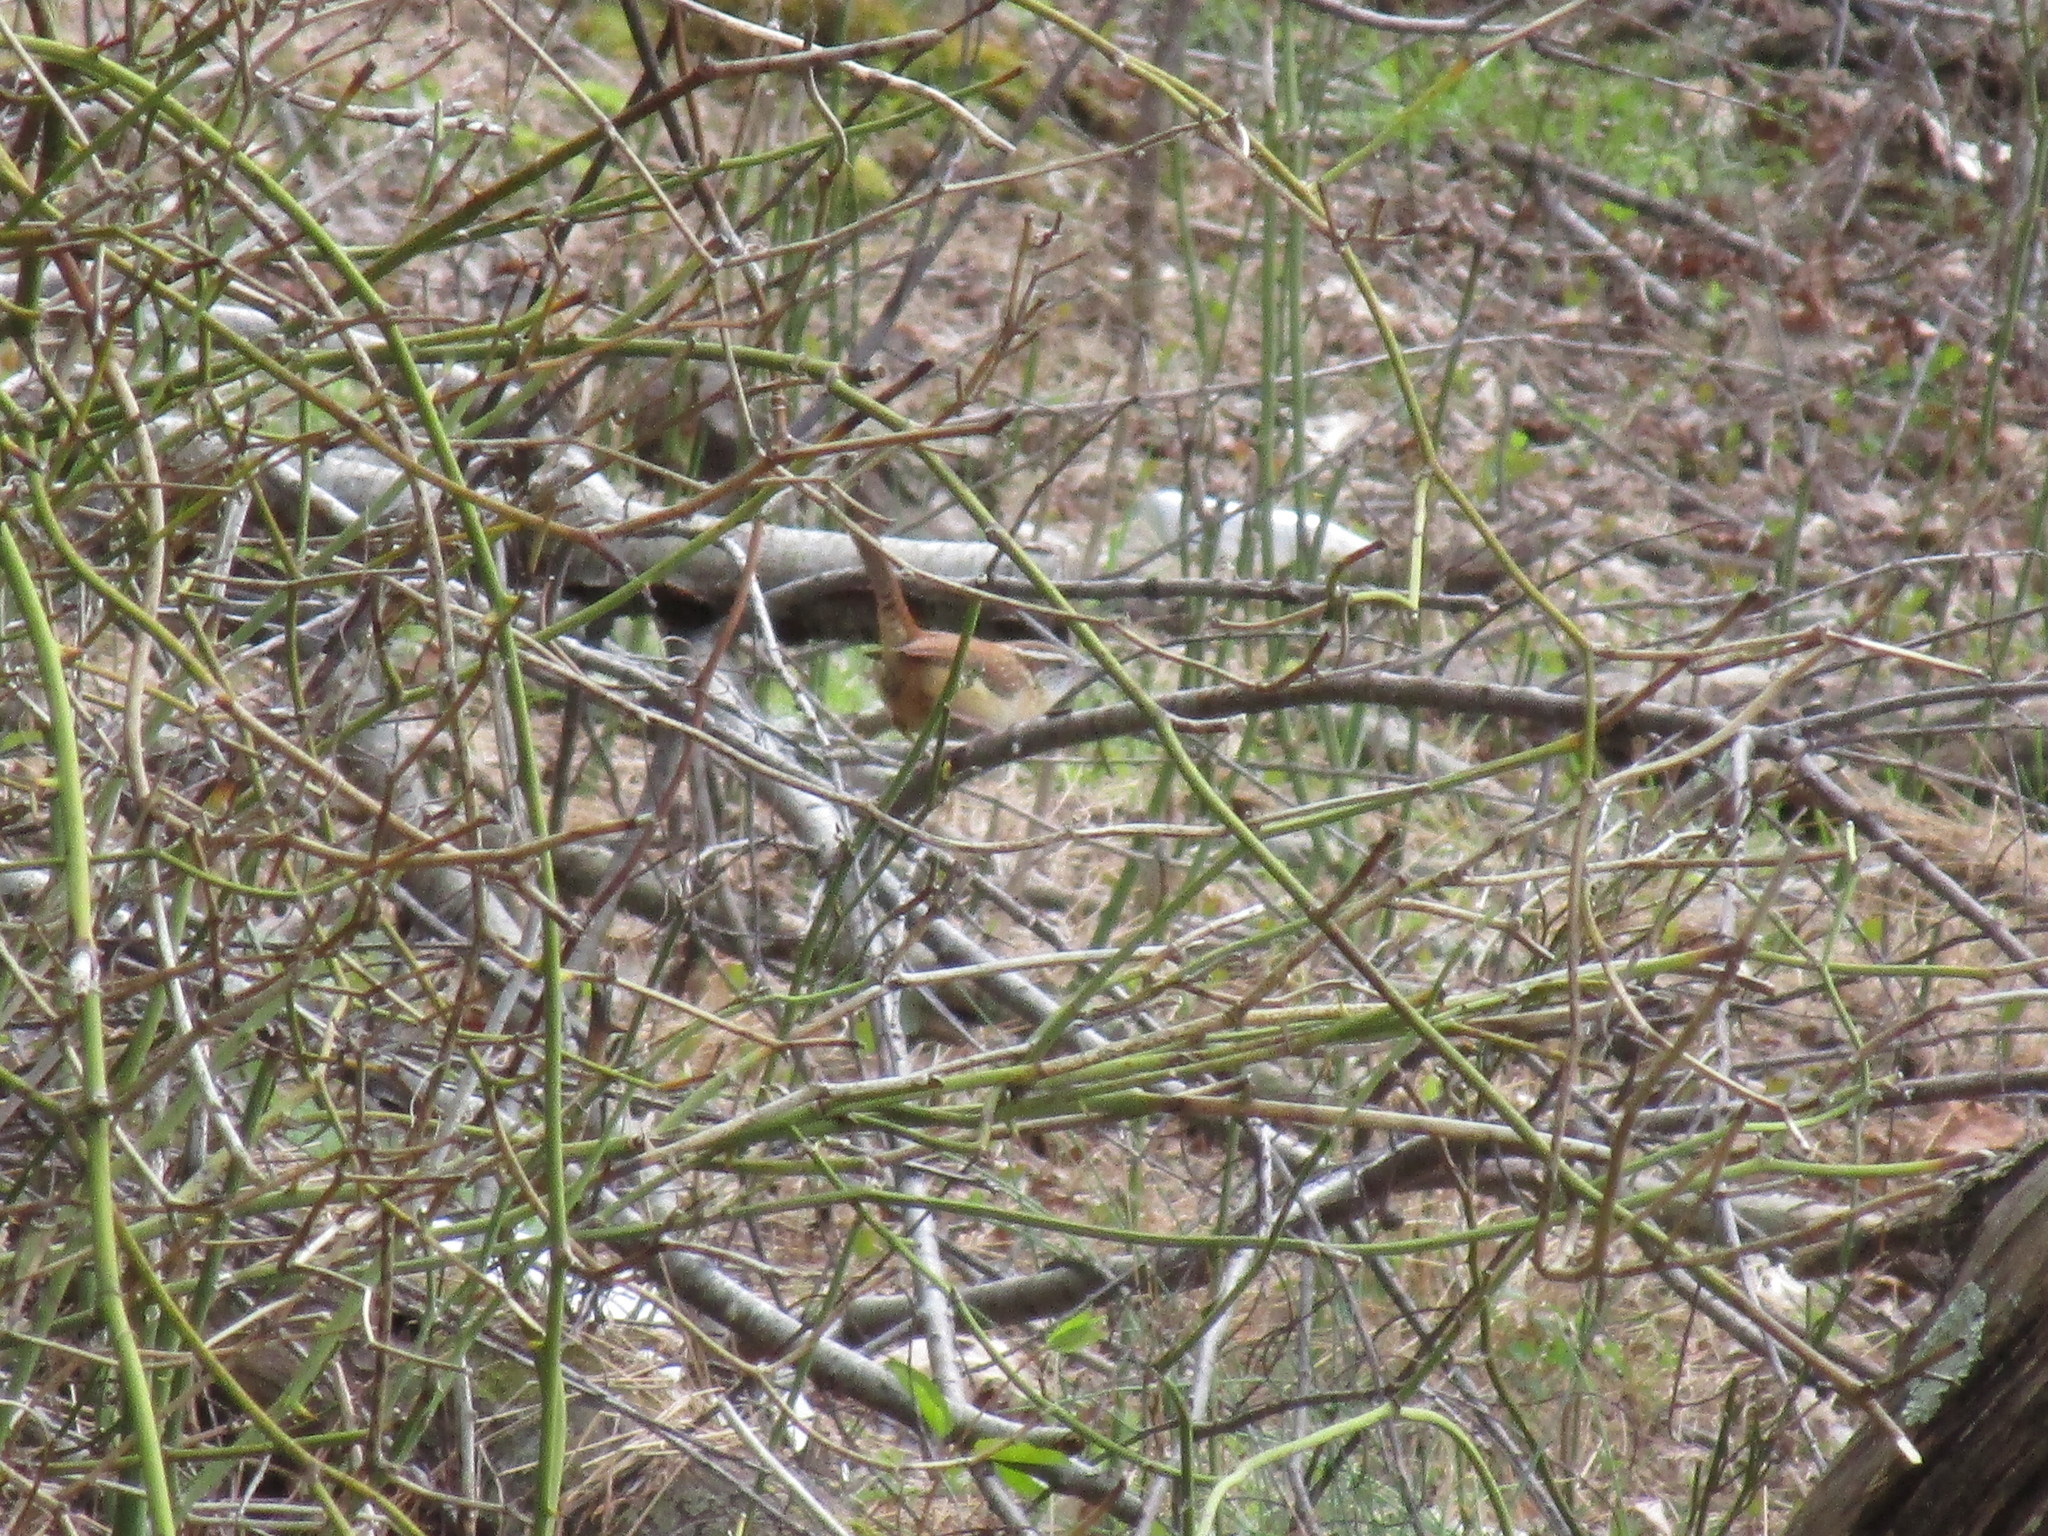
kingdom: Animalia
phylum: Chordata
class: Aves
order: Passeriformes
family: Troglodytidae
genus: Thryothorus
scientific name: Thryothorus ludovicianus
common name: Carolina wren
